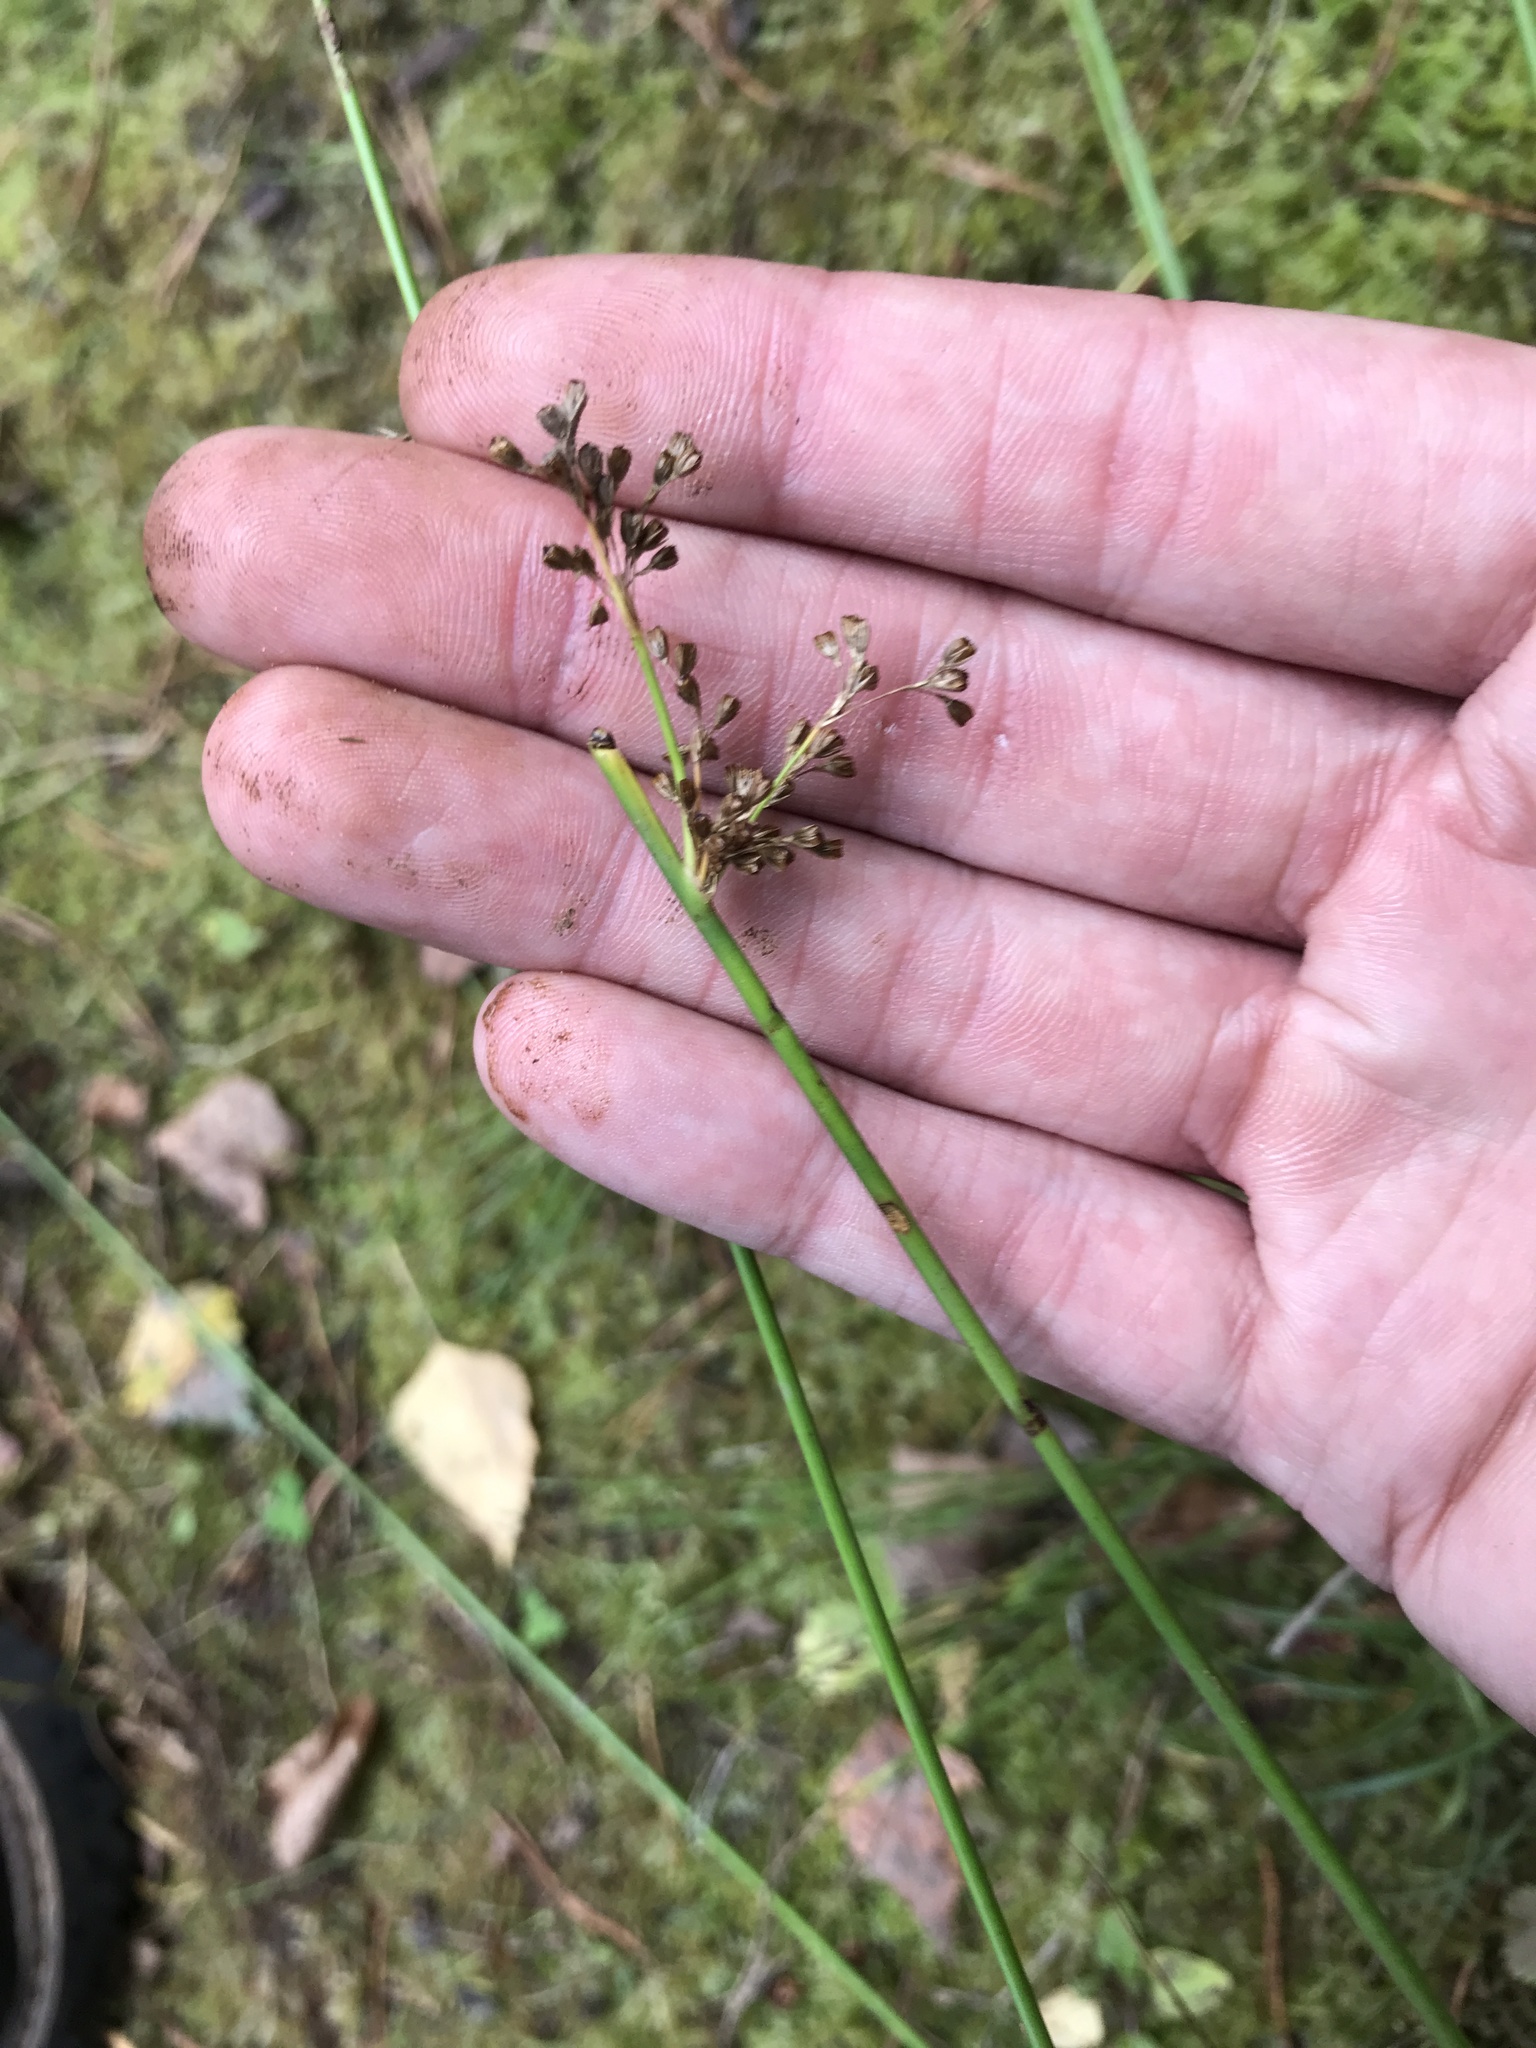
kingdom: Plantae
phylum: Tracheophyta
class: Liliopsida
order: Poales
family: Juncaceae
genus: Juncus
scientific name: Juncus effusus
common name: Soft rush
